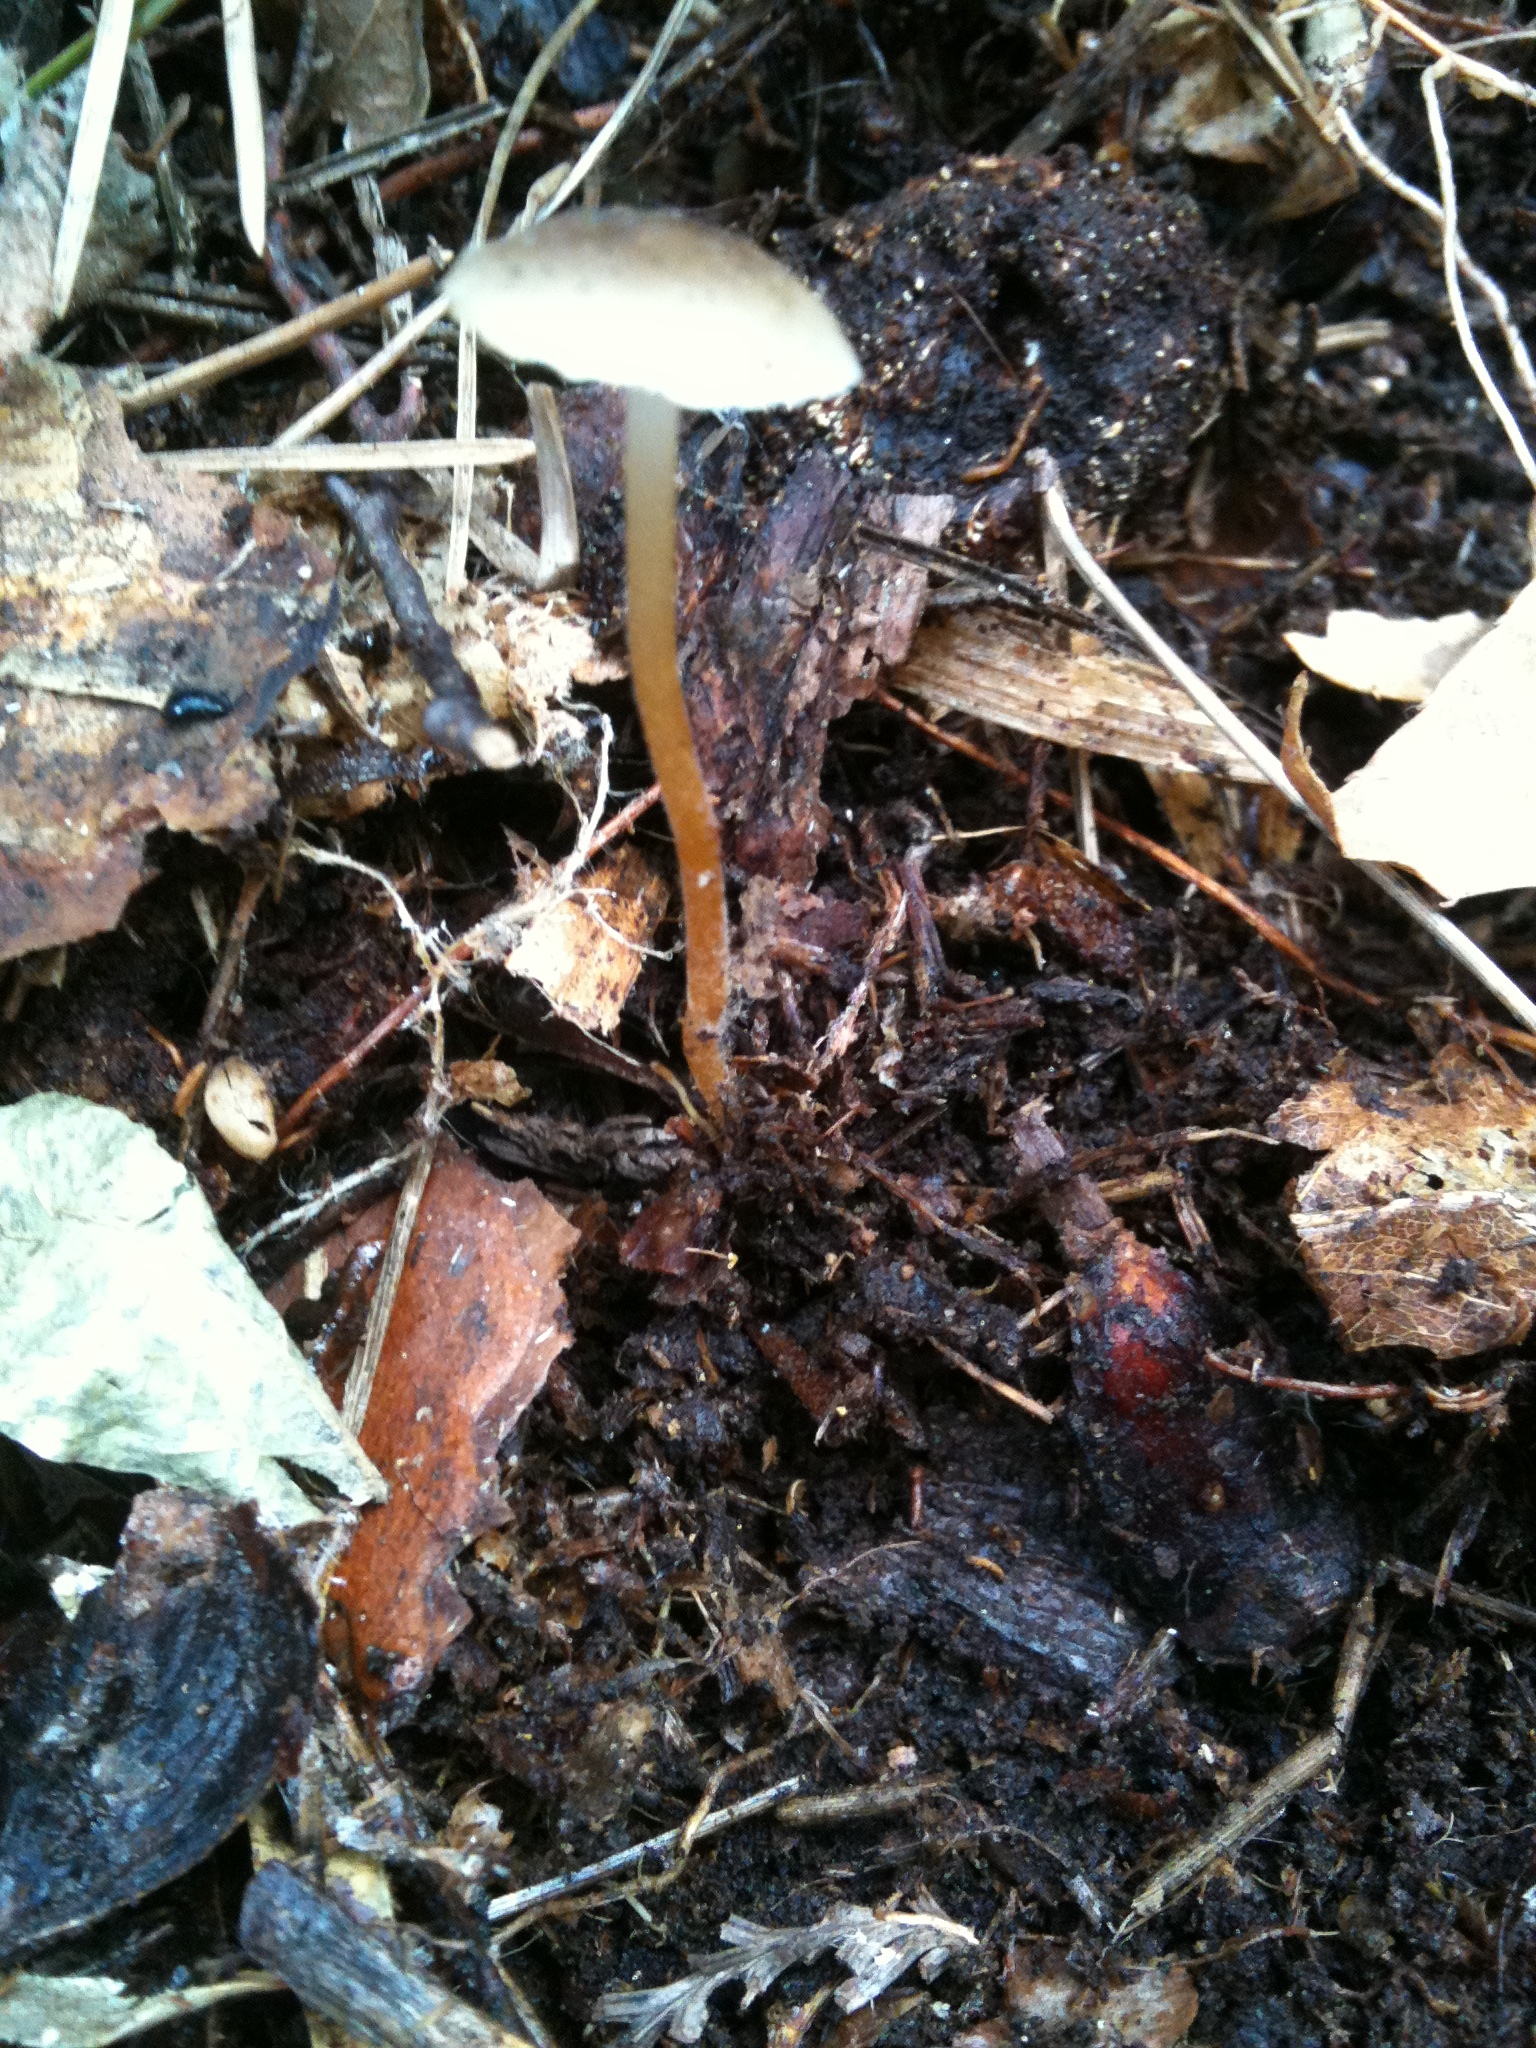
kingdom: Fungi
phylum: Basidiomycota
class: Agaricomycetes
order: Agaricales
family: Physalacriaceae
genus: Strobilurus
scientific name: Strobilurus stephanocystis
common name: Russian conecap
